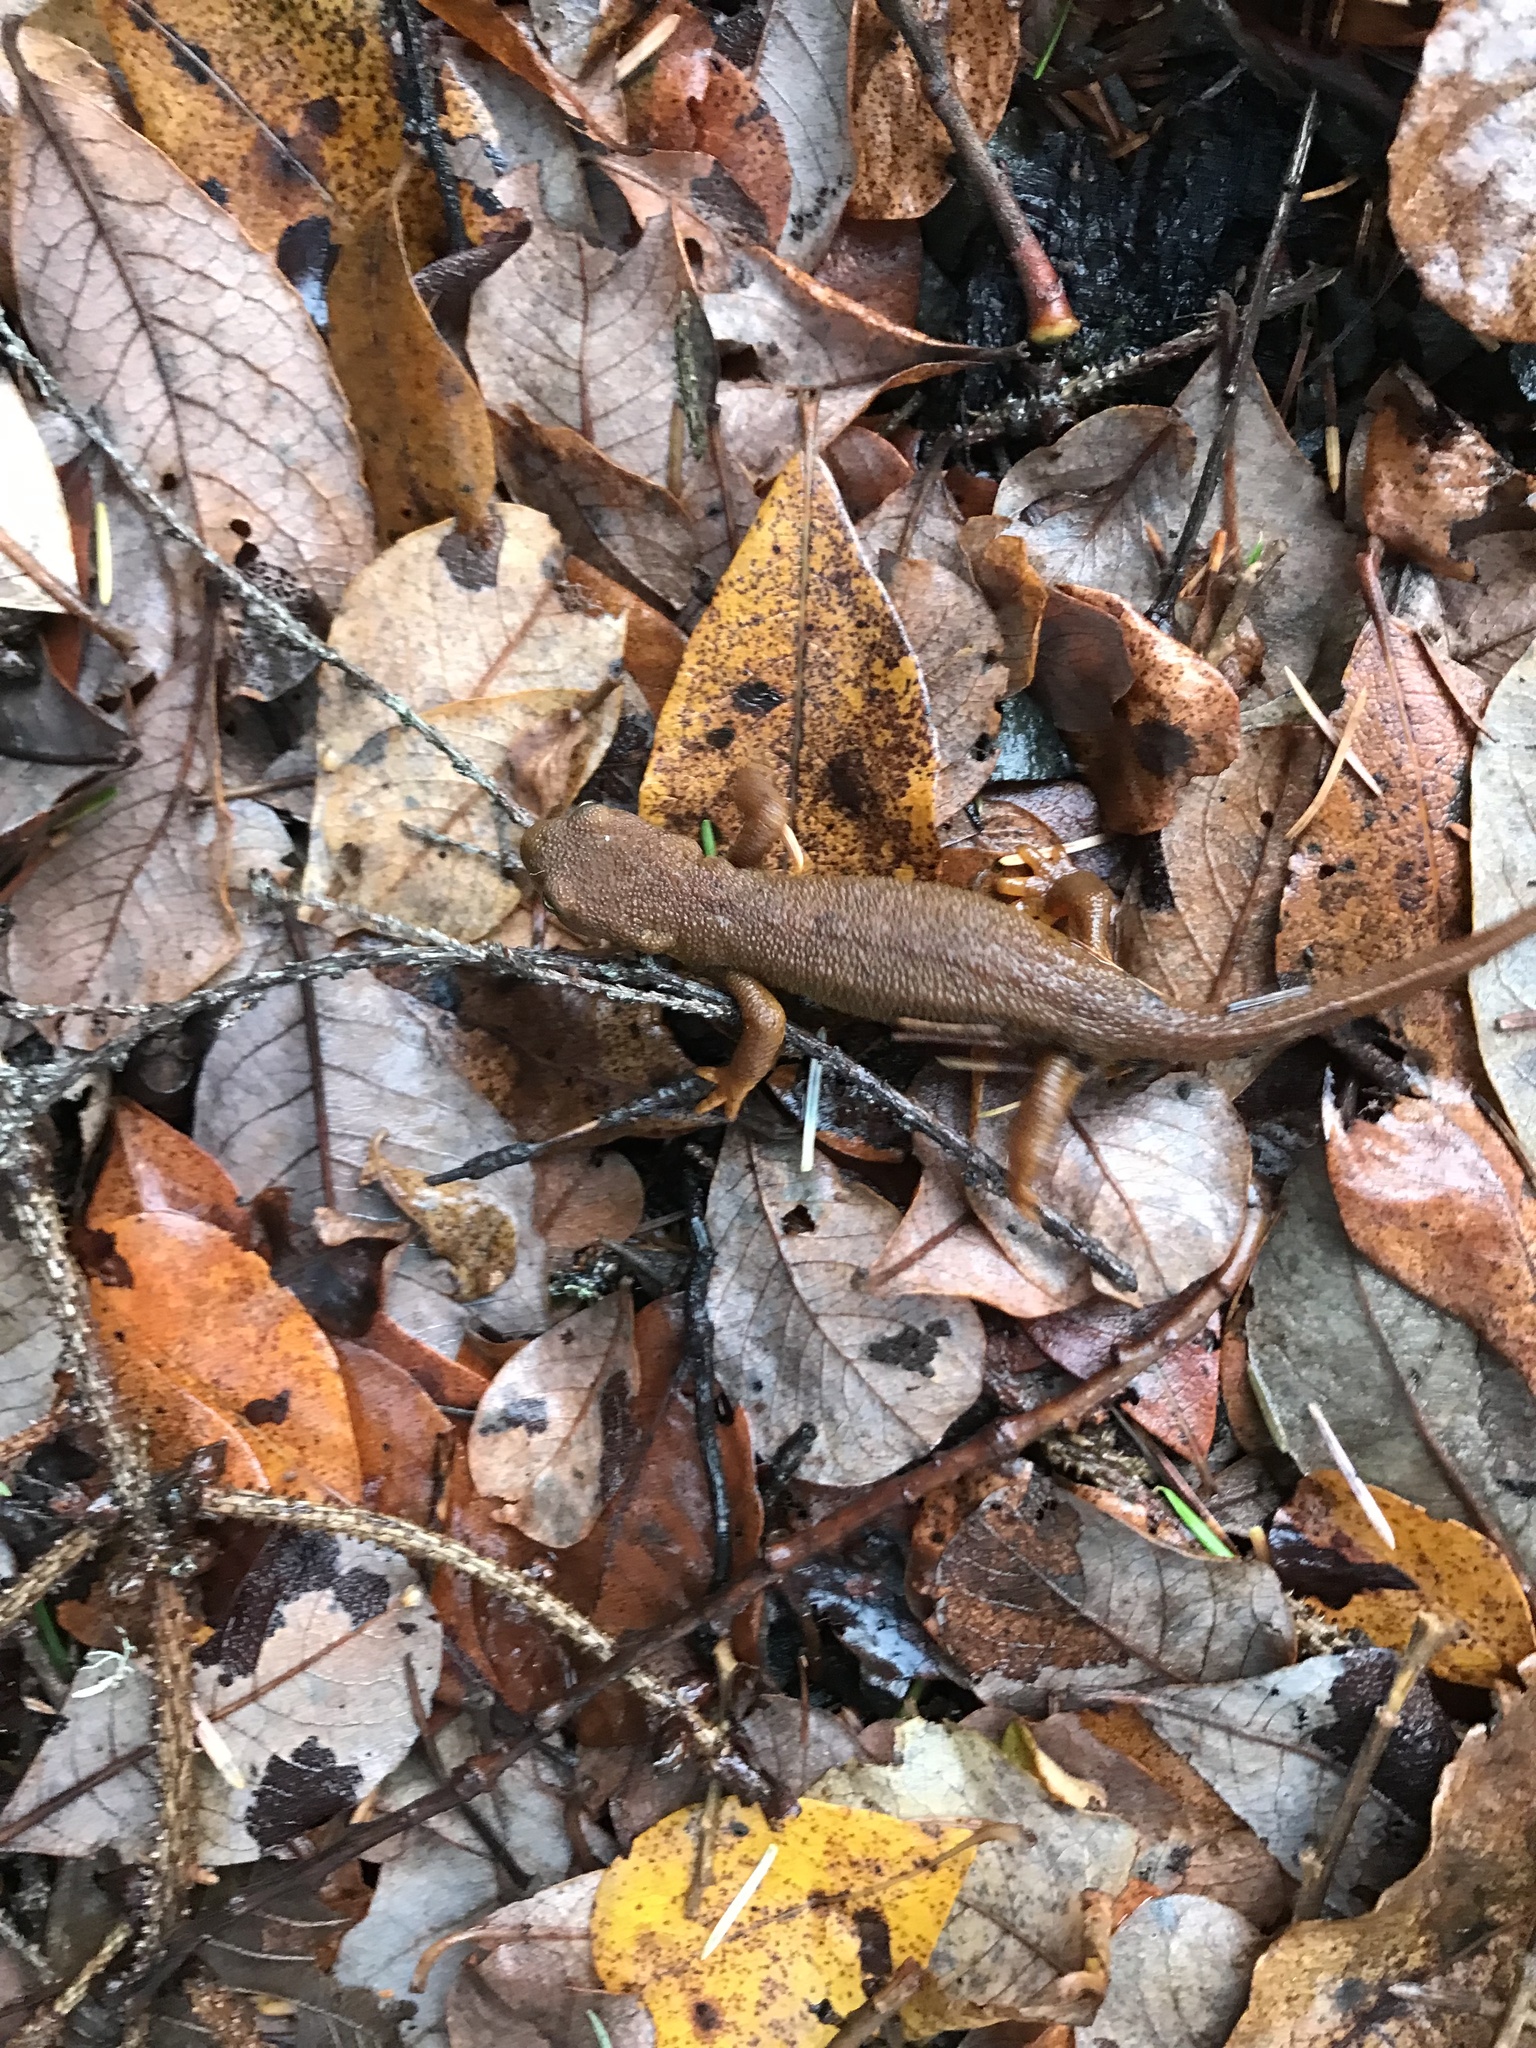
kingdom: Animalia
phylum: Chordata
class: Amphibia
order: Caudata
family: Salamandridae
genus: Taricha
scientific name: Taricha granulosa
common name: Roughskin newt
